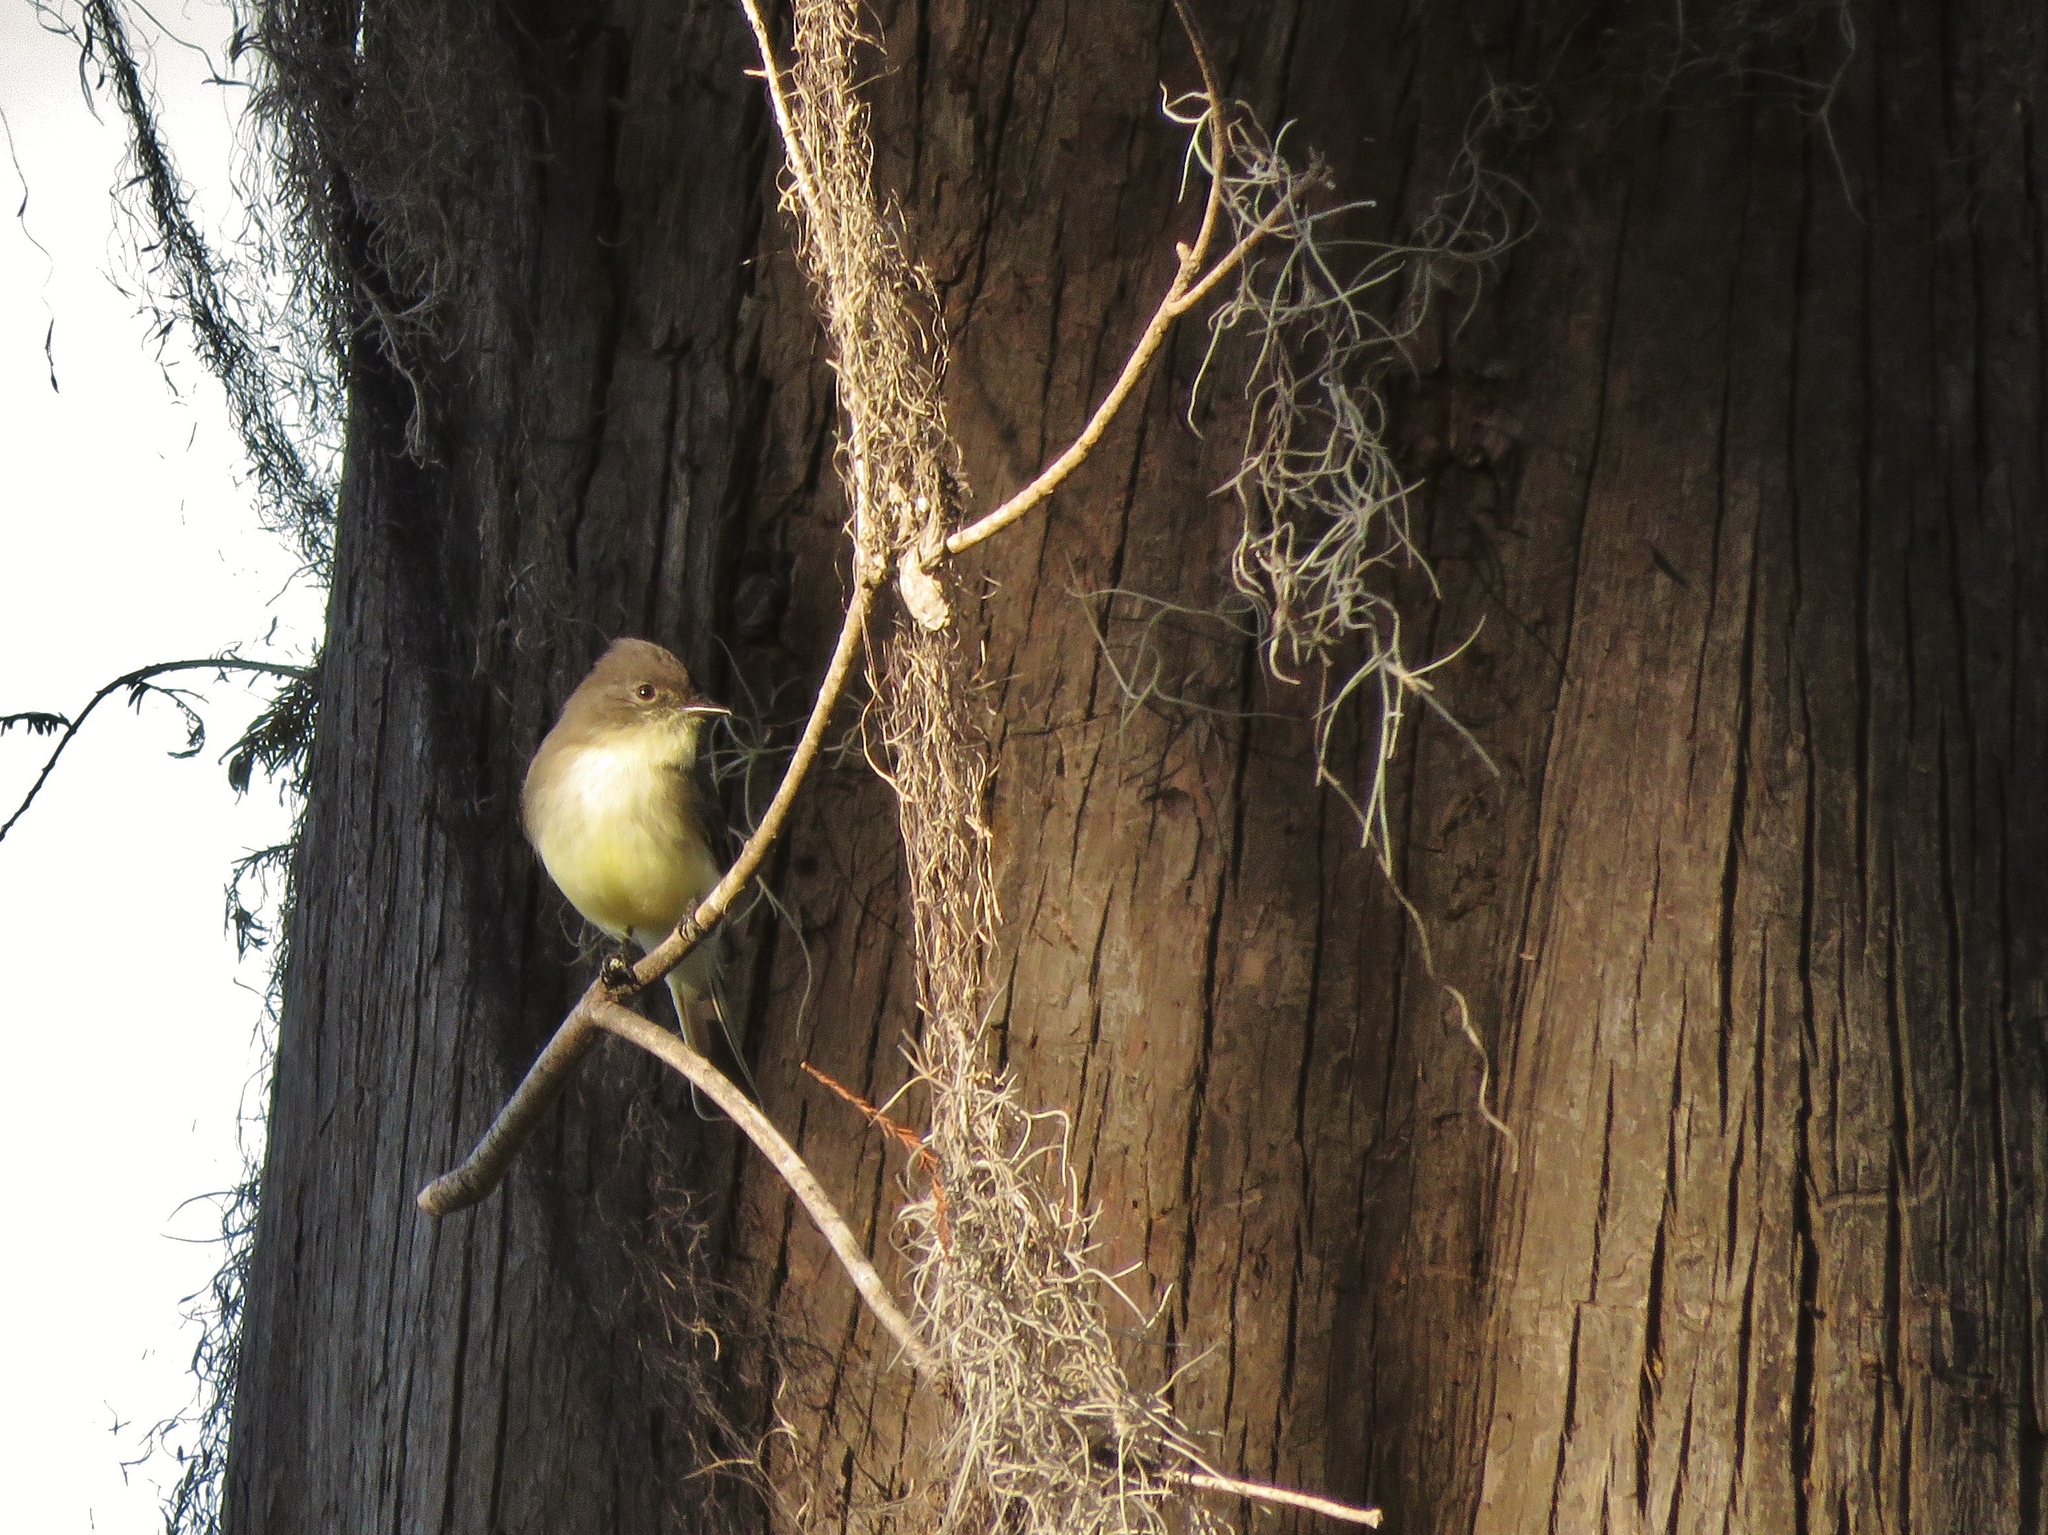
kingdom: Animalia
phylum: Chordata
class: Aves
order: Passeriformes
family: Tyrannidae
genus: Sayornis
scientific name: Sayornis phoebe
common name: Eastern phoebe
